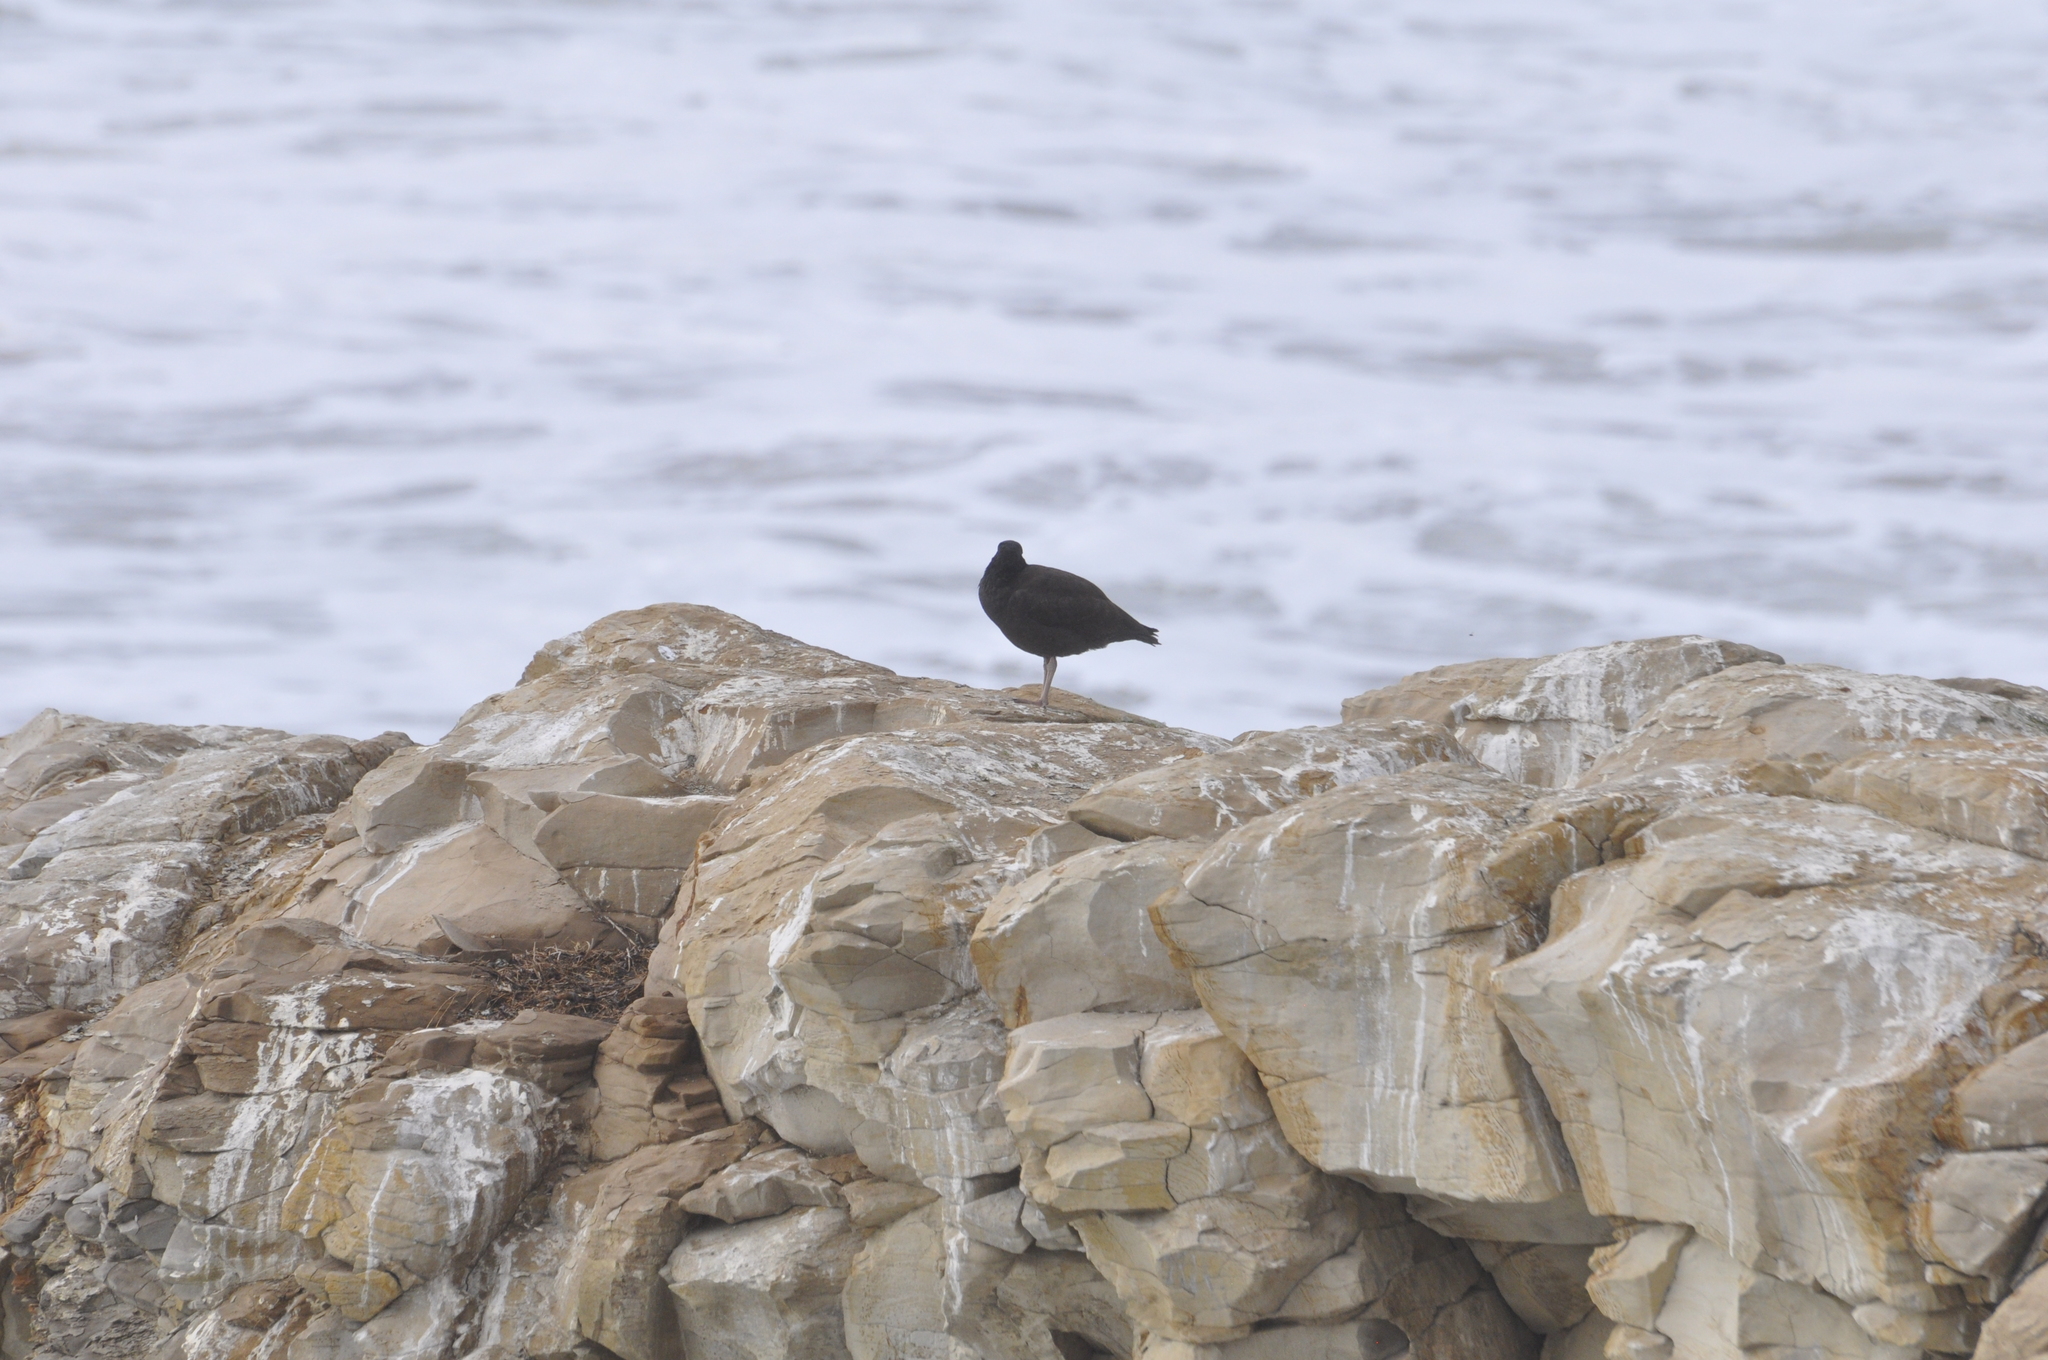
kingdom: Animalia
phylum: Chordata
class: Aves
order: Charadriiformes
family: Haematopodidae
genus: Haematopus
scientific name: Haematopus bachmani
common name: Black oystercatcher
